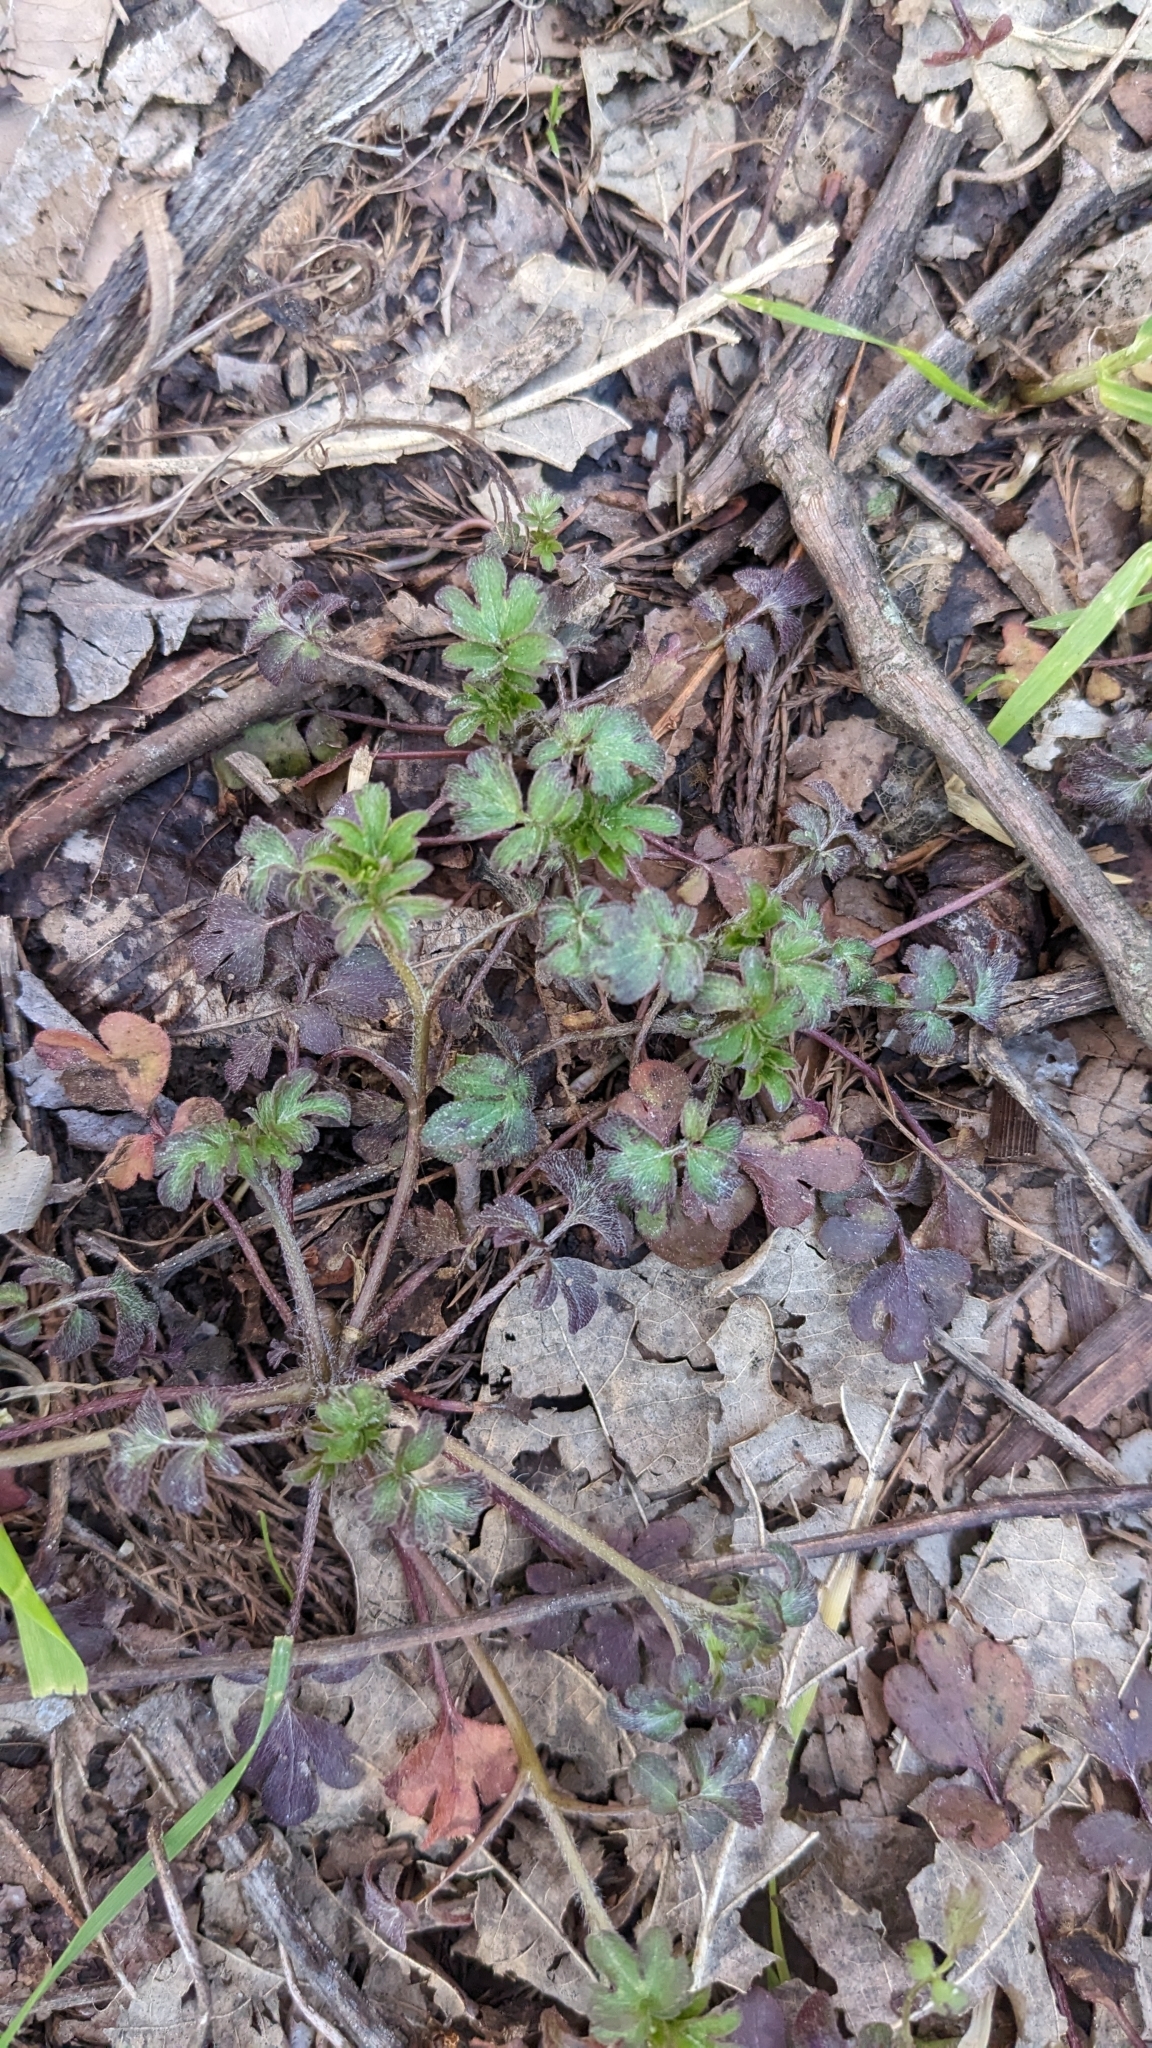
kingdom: Plantae
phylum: Tracheophyta
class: Magnoliopsida
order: Boraginales
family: Hydrophyllaceae
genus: Phacelia
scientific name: Phacelia ranunculacea
